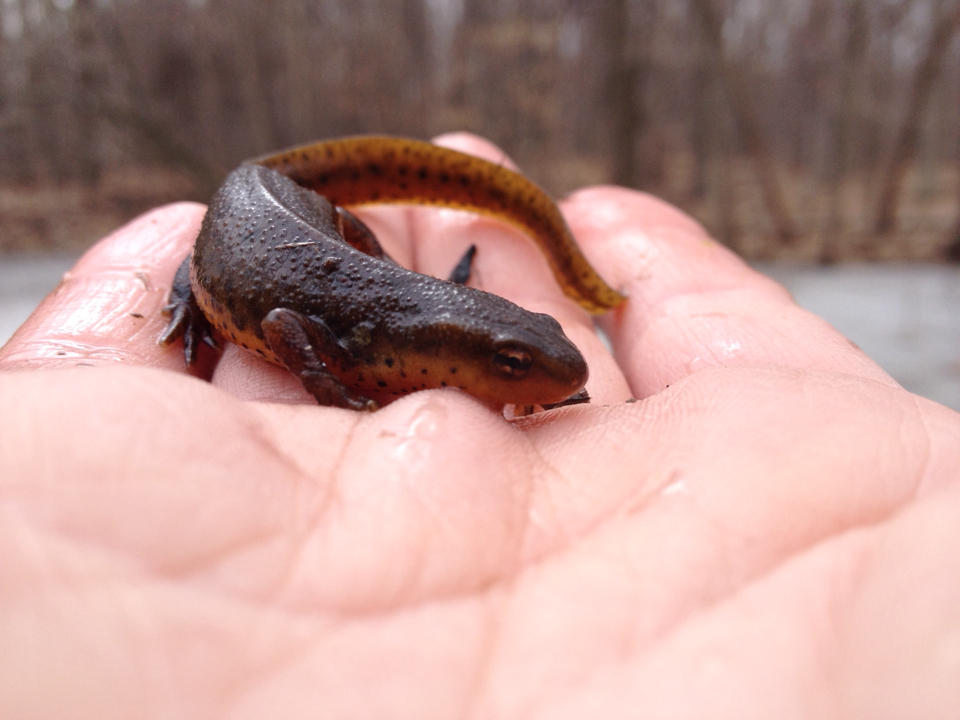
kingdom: Animalia
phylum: Chordata
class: Amphibia
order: Caudata
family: Salamandridae
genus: Notophthalmus
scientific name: Notophthalmus viridescens
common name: Eastern newt
